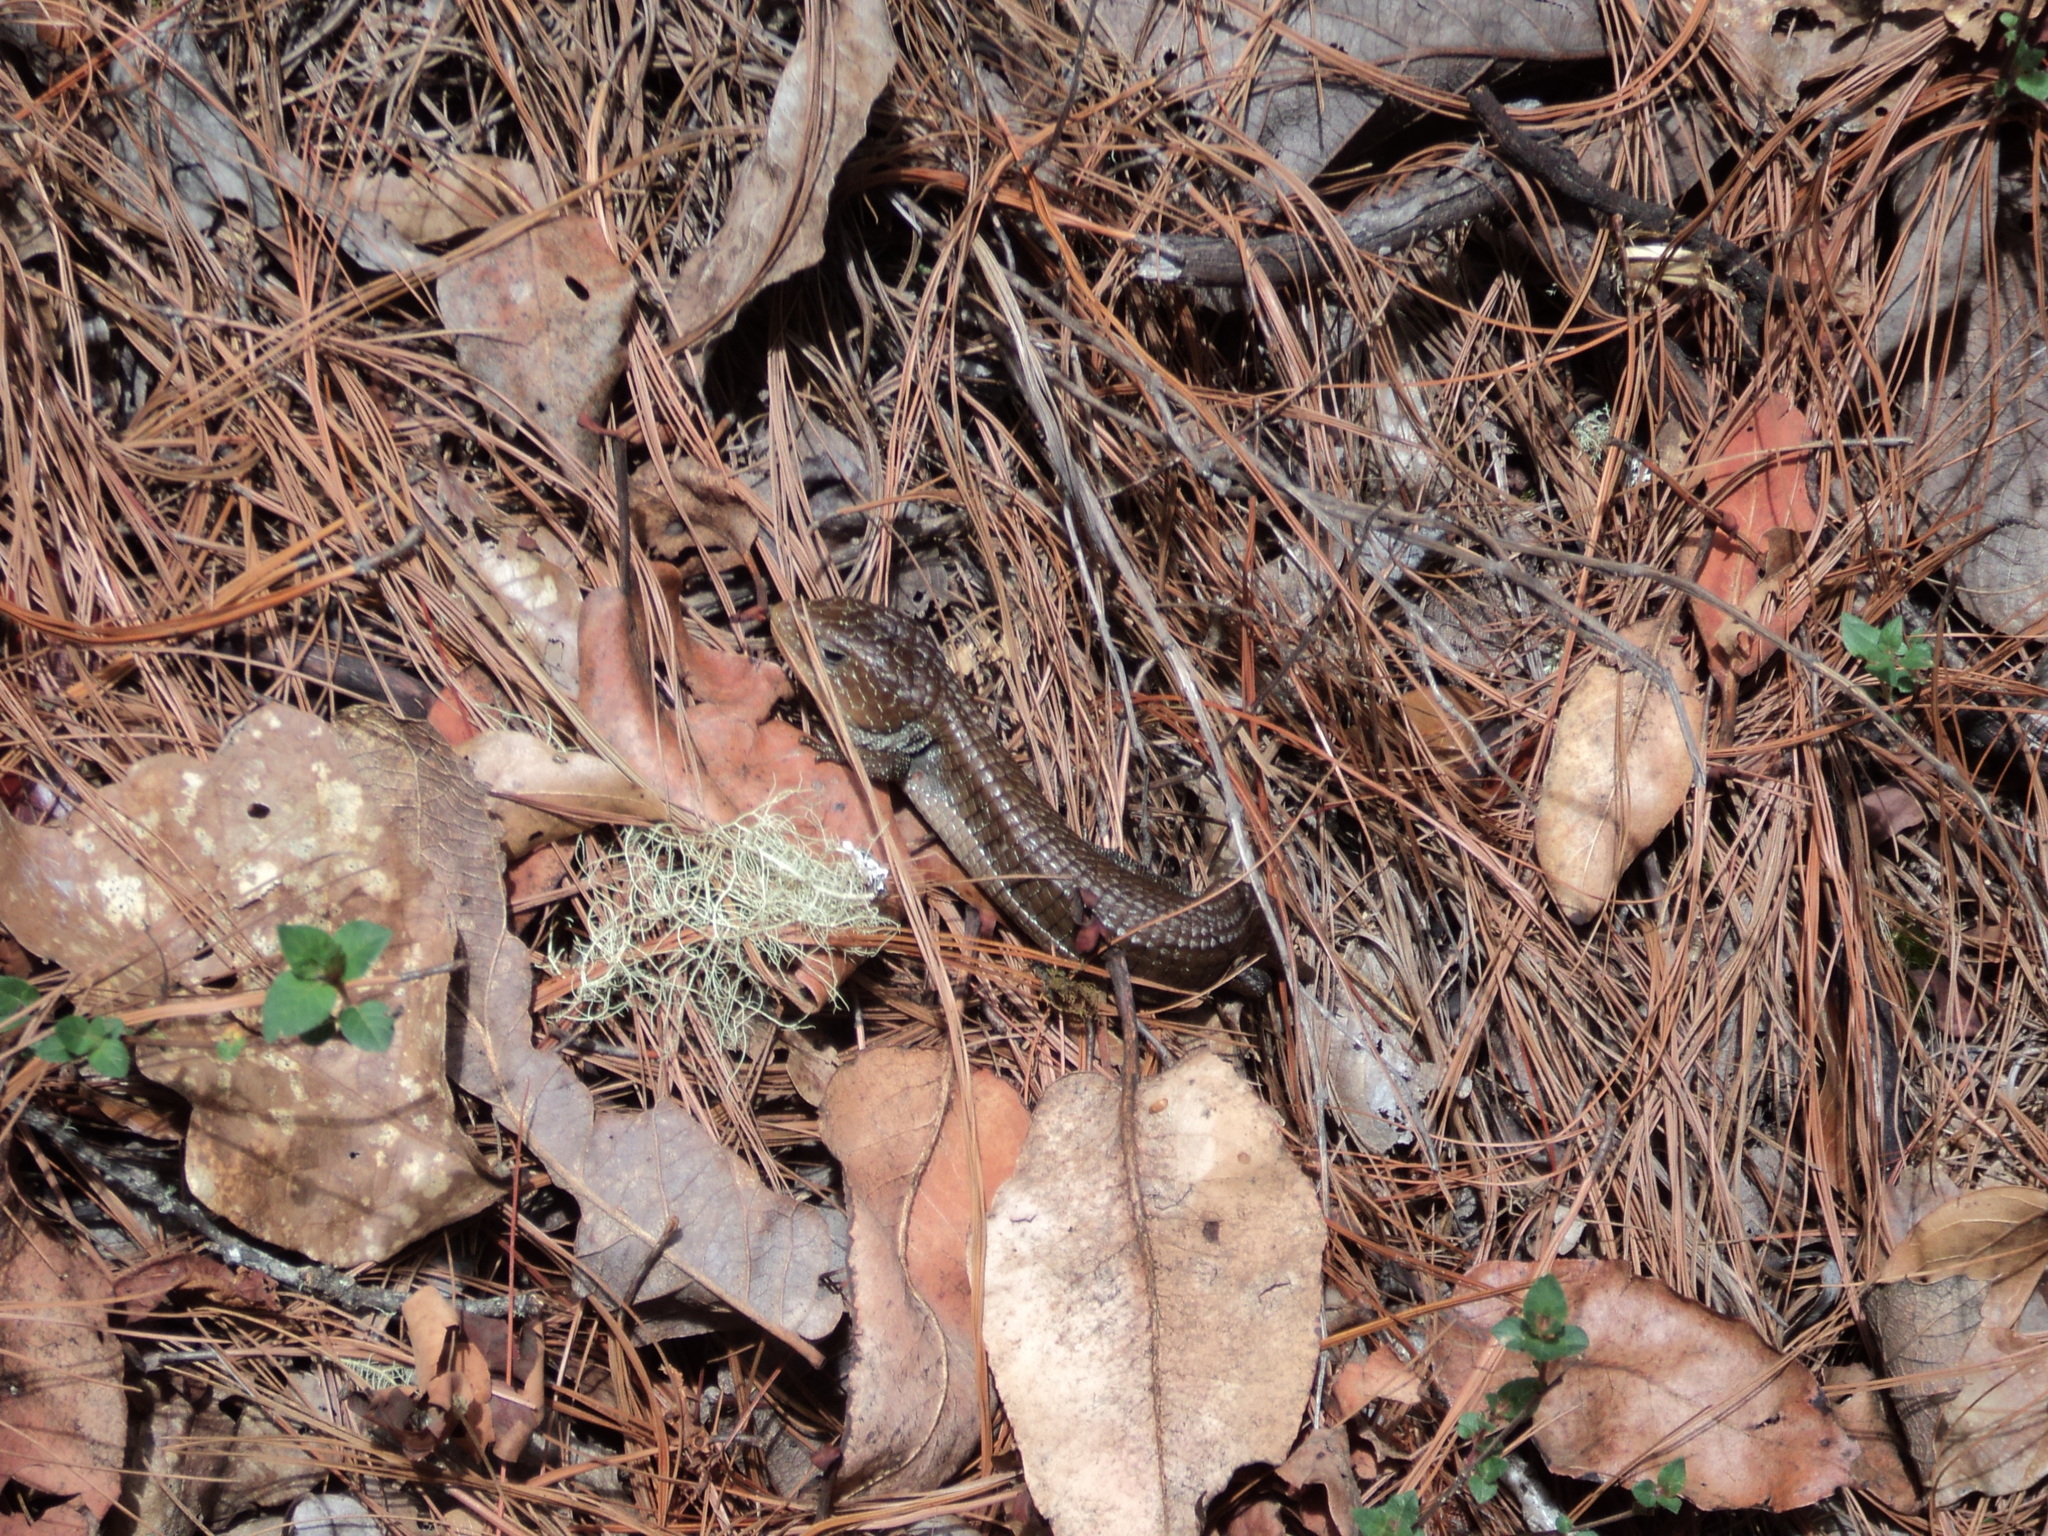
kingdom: Animalia
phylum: Chordata
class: Squamata
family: Anguidae
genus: Barisia
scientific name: Barisia planifrons
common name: Oaxaca alligator lizard
